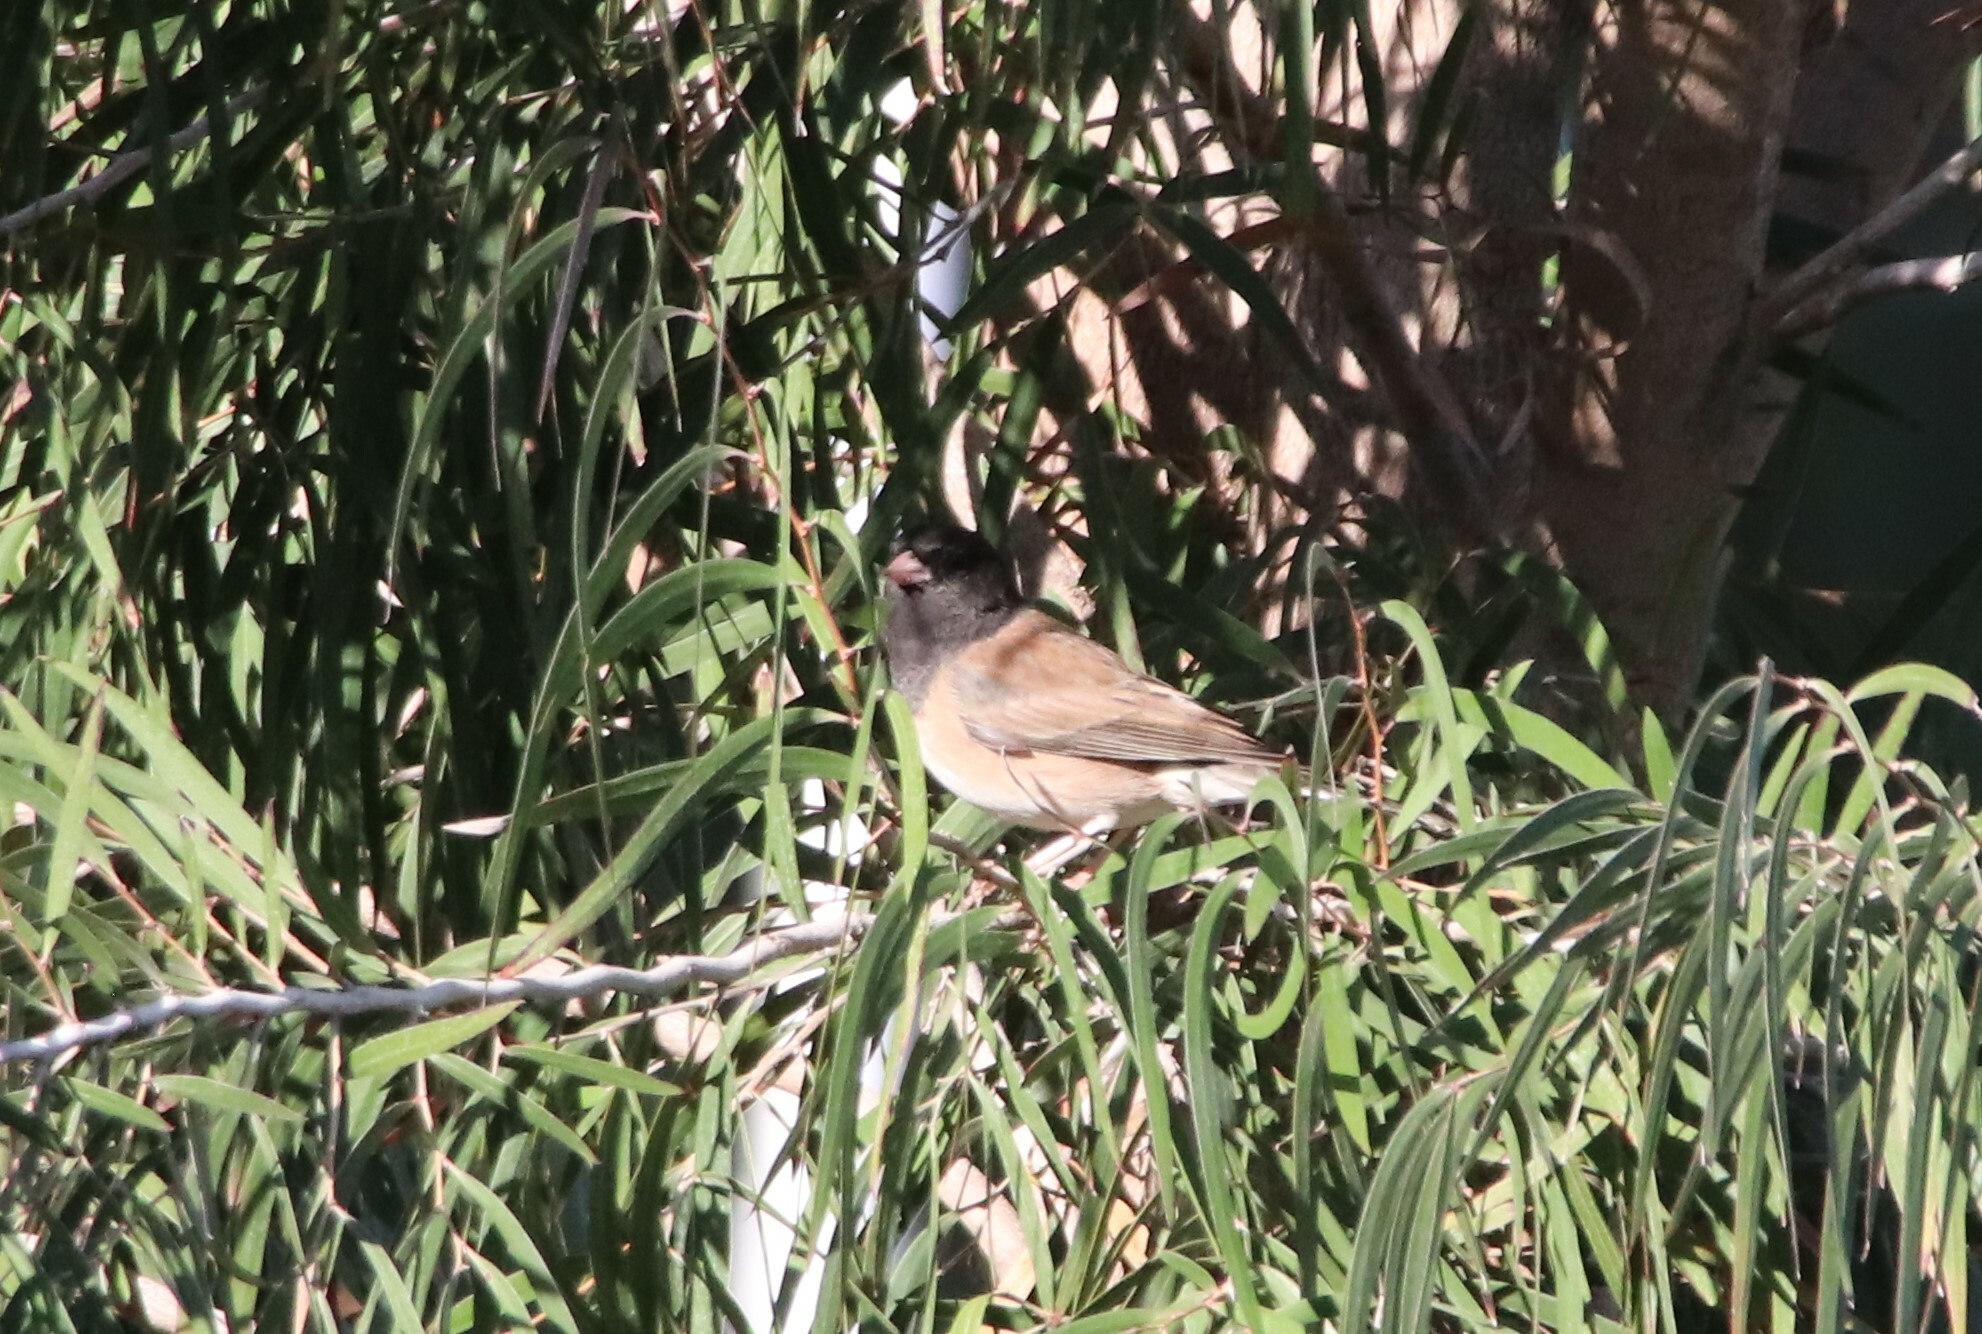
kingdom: Animalia
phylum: Chordata
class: Aves
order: Passeriformes
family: Passerellidae
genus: Junco
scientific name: Junco hyemalis
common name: Dark-eyed junco
